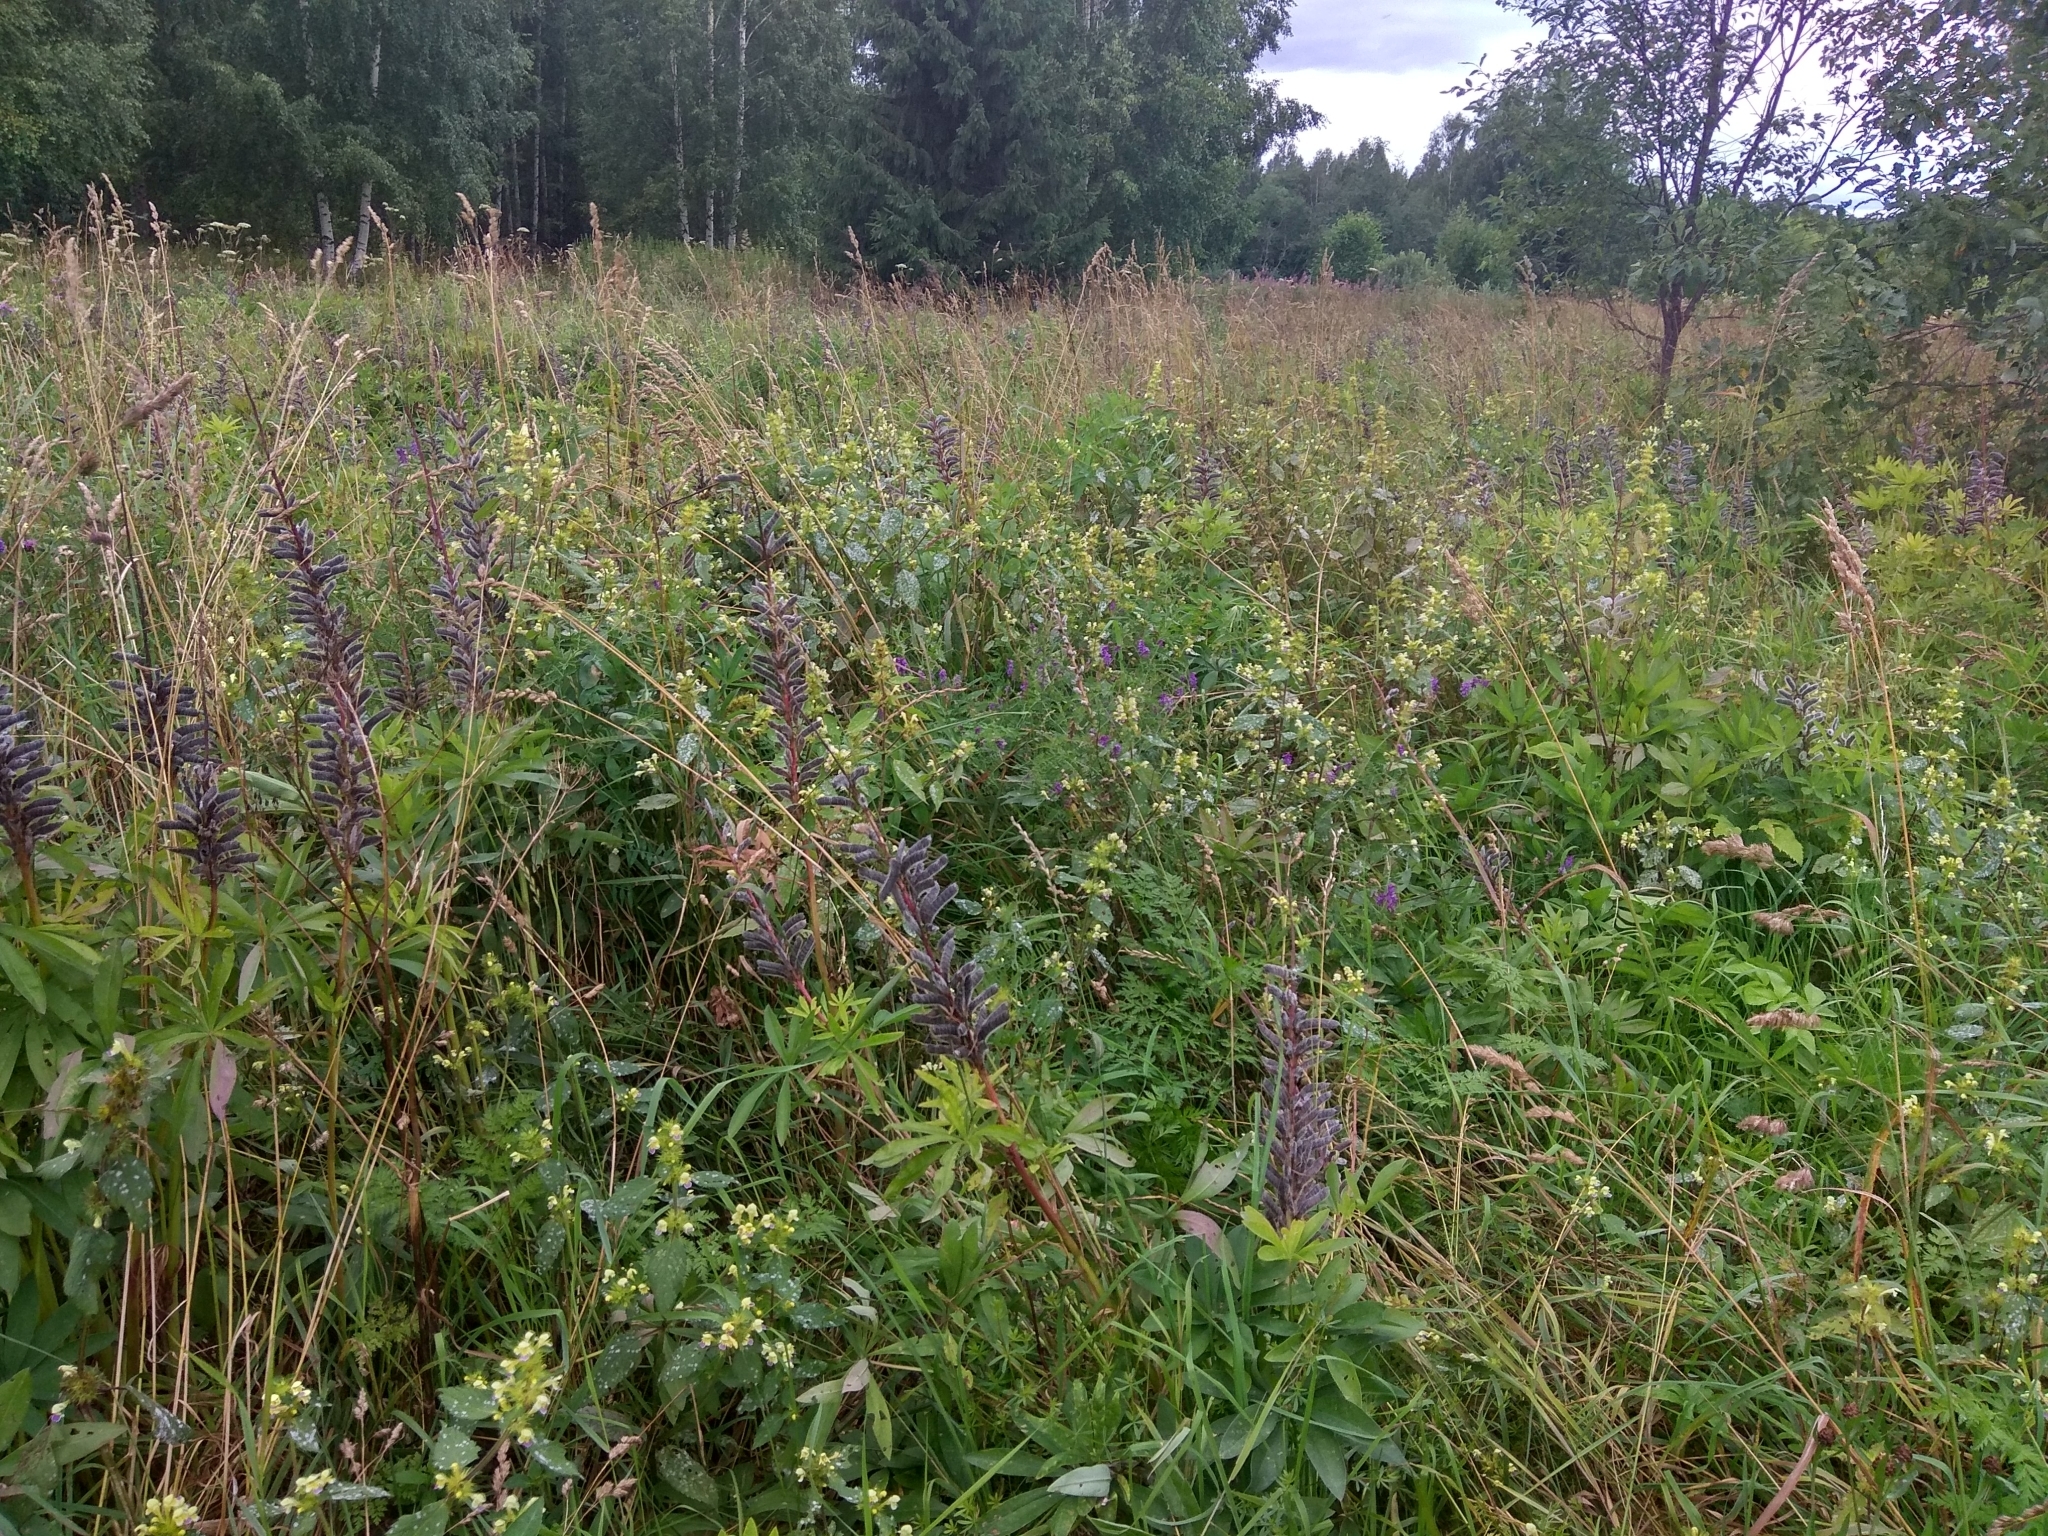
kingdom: Plantae
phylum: Tracheophyta
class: Magnoliopsida
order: Lamiales
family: Lamiaceae
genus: Galeopsis
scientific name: Galeopsis speciosa
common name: Large-flowered hemp-nettle
